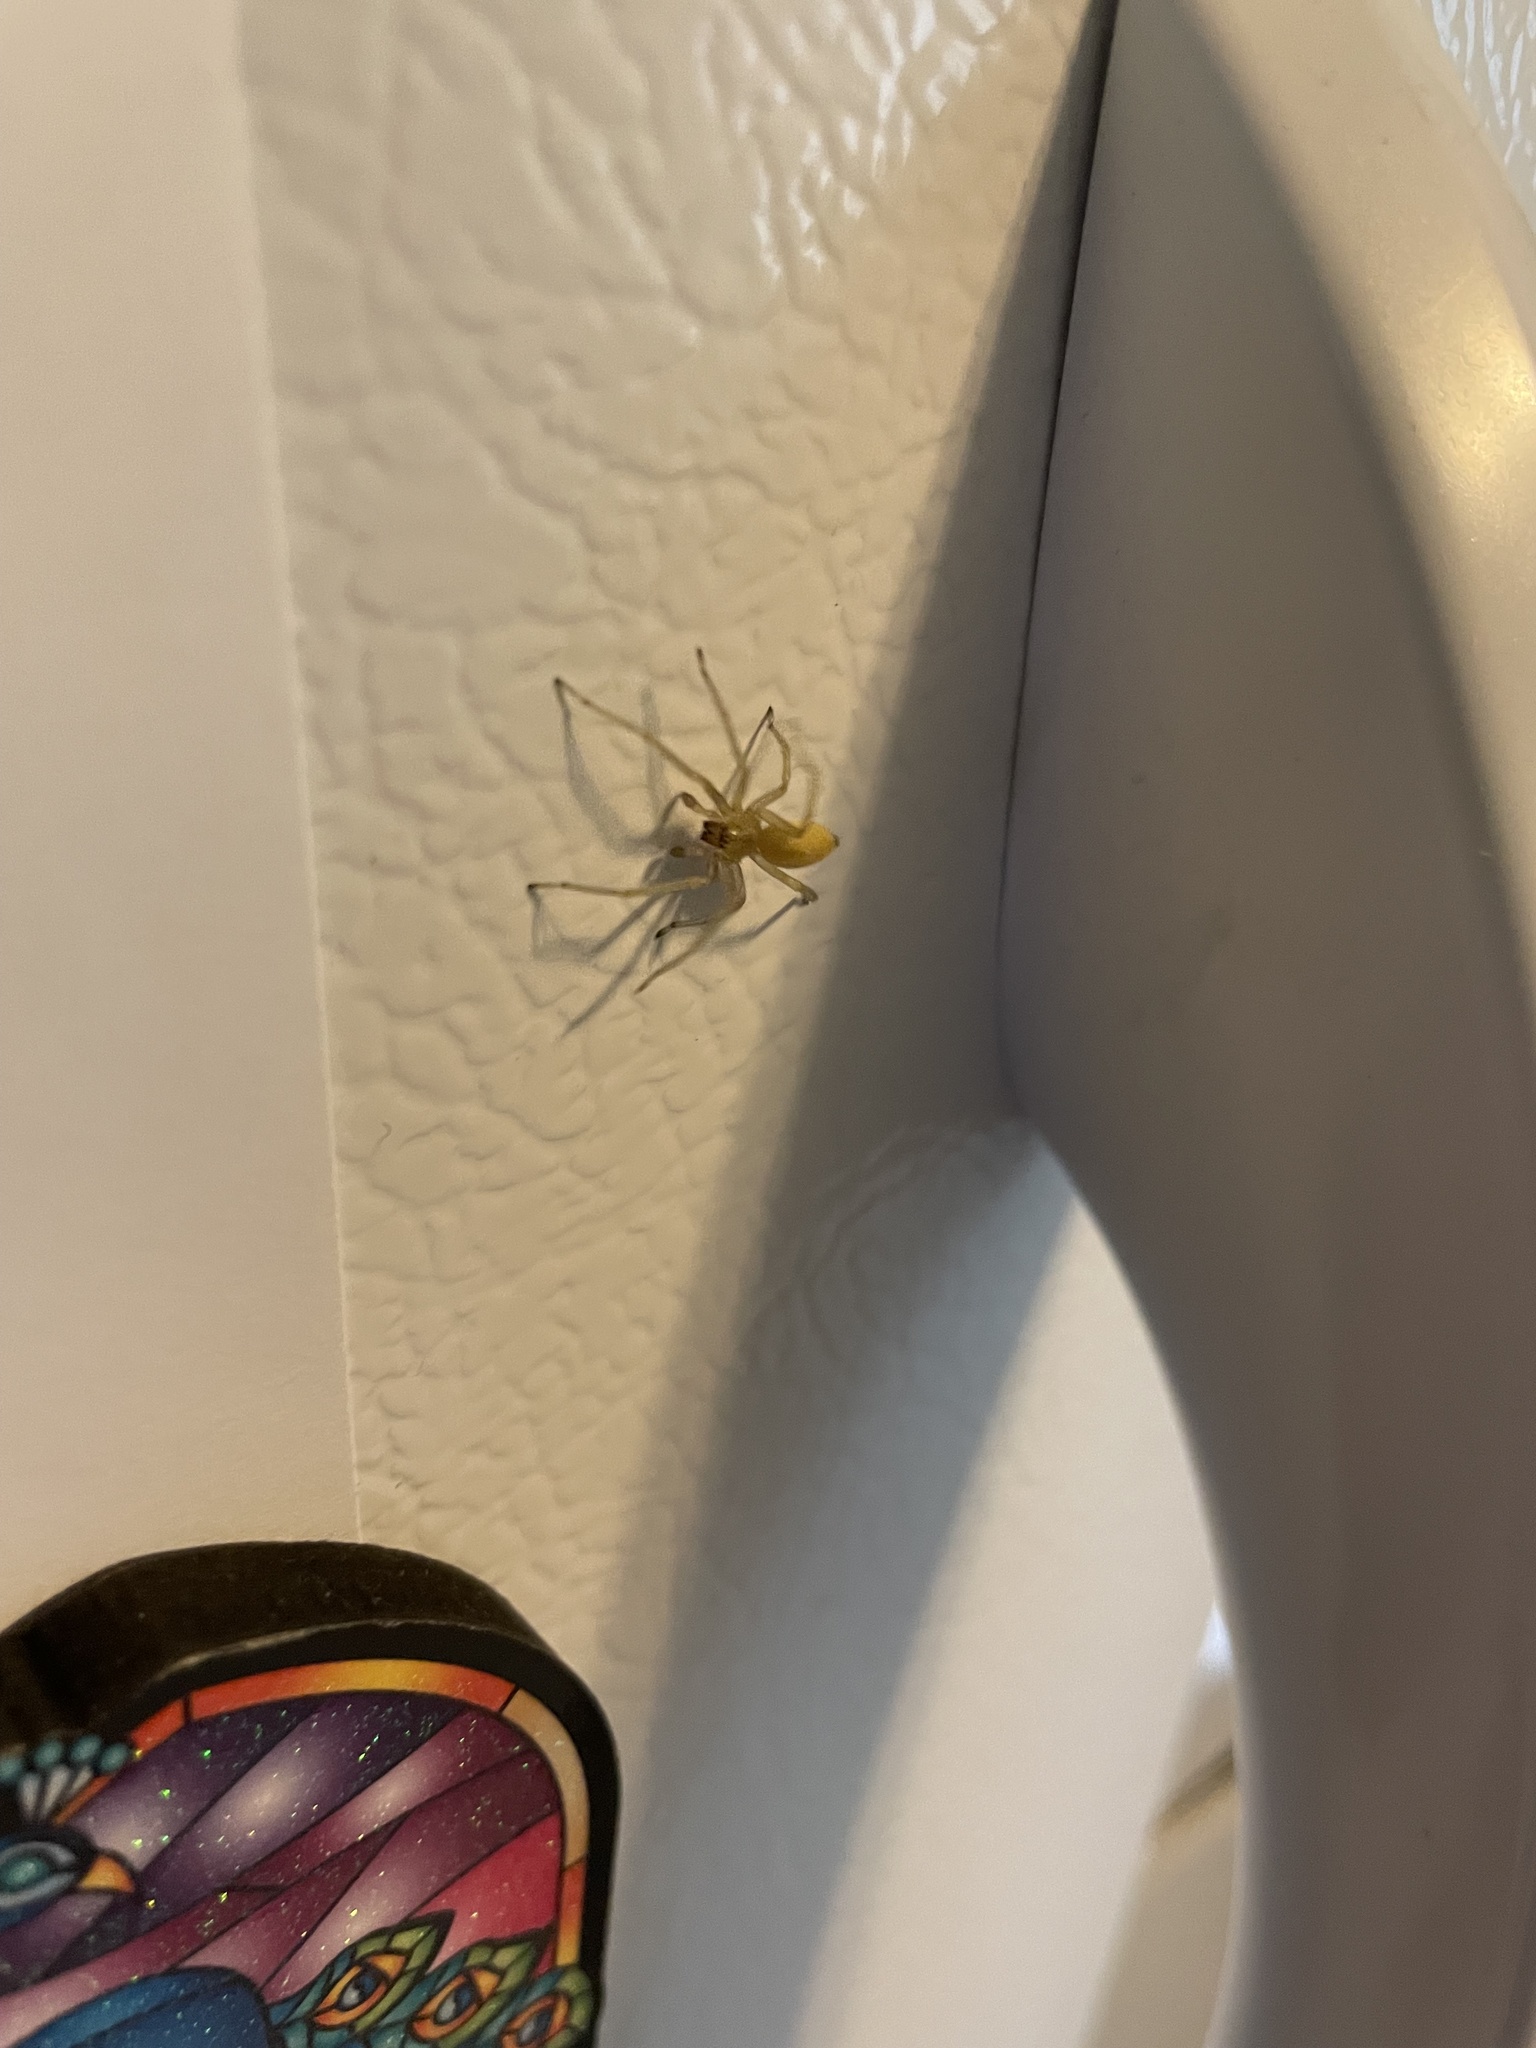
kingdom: Animalia
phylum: Arthropoda
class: Arachnida
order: Araneae
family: Cheiracanthiidae
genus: Cheiracanthium
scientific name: Cheiracanthium mildei
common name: Northern yellow sac spider
